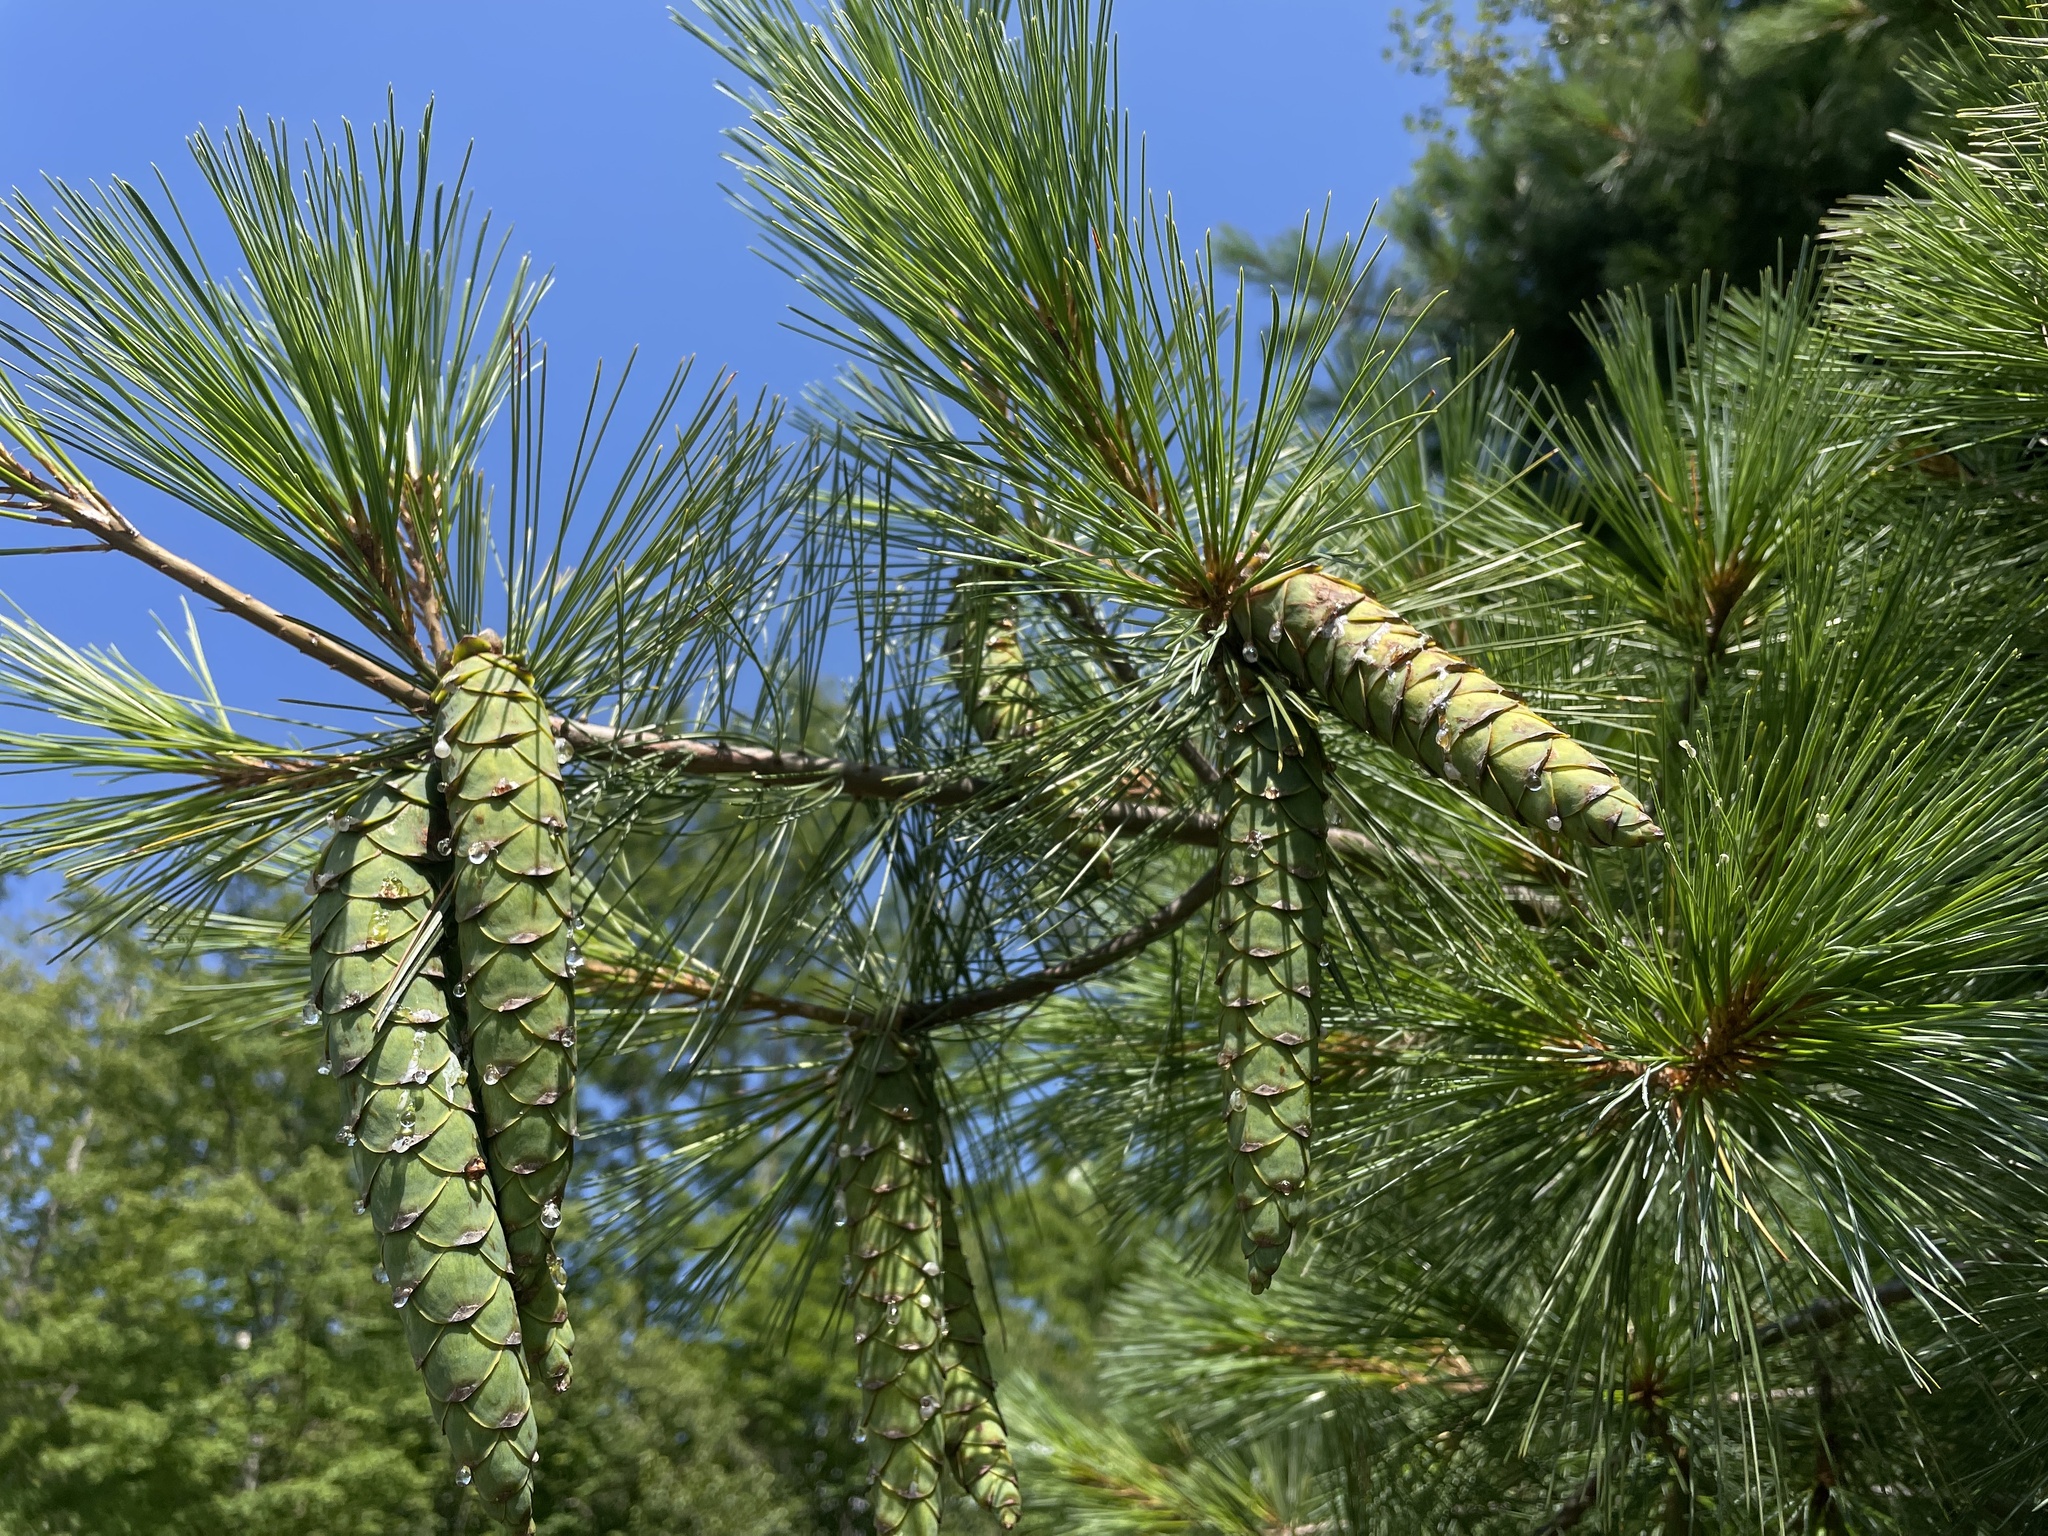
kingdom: Plantae
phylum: Tracheophyta
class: Pinopsida
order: Pinales
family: Pinaceae
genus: Pinus
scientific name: Pinus strobus
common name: Weymouth pine
